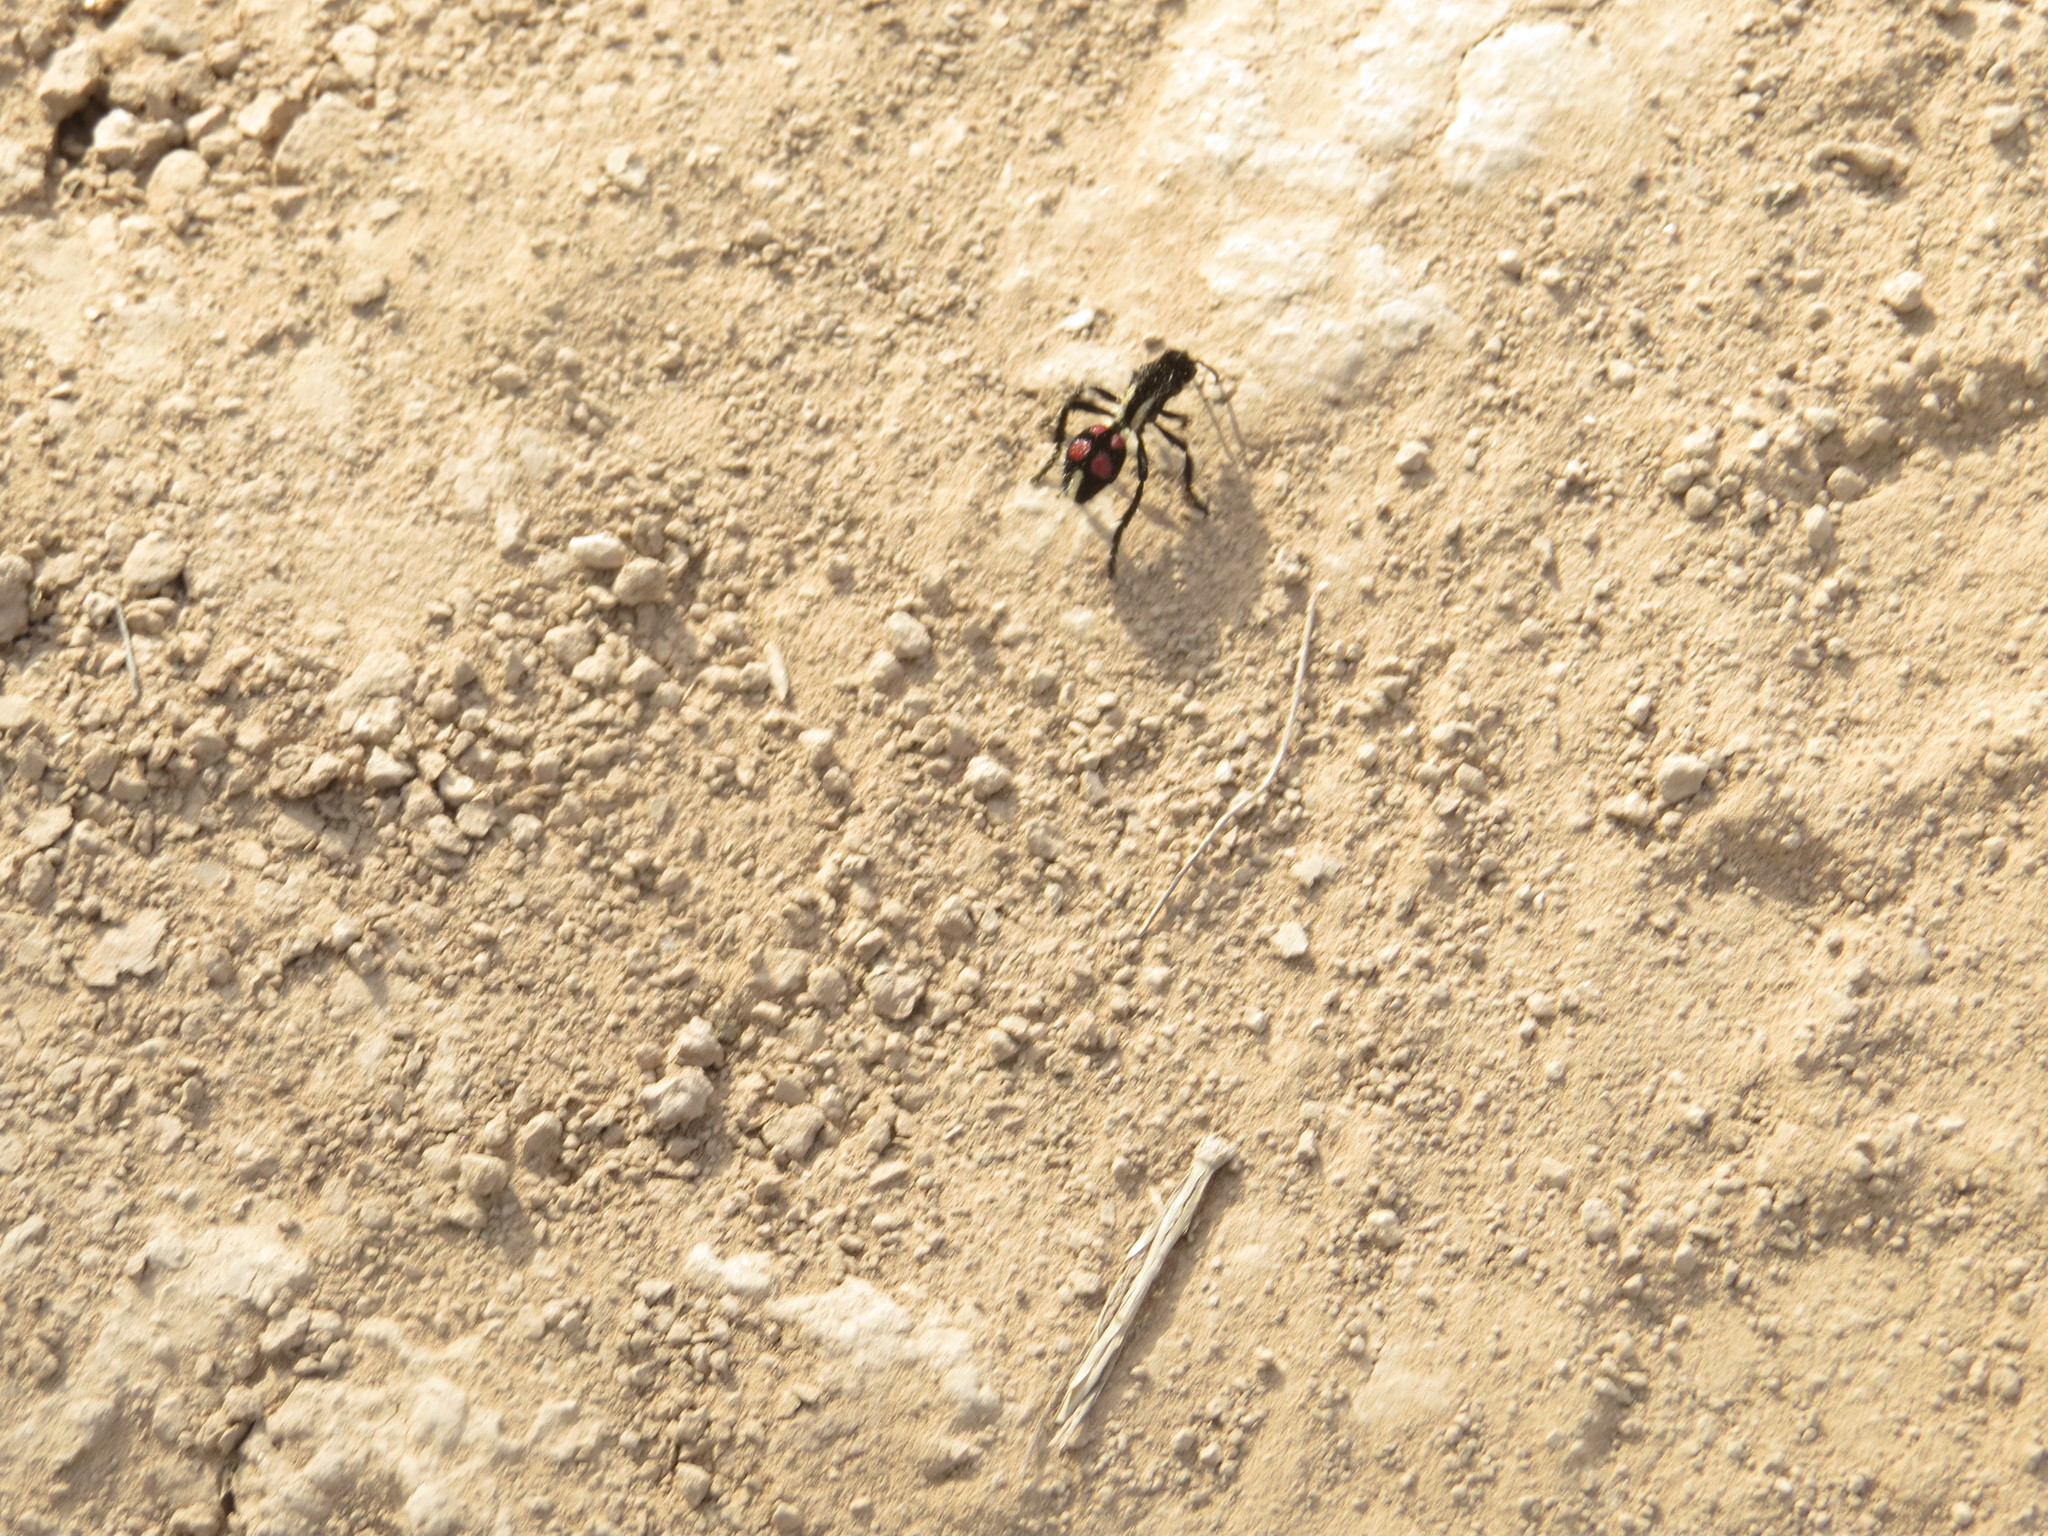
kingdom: Animalia
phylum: Arthropoda
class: Insecta
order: Hymenoptera
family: Mutillidae
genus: Traumatomutilla
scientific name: Traumatomutilla
